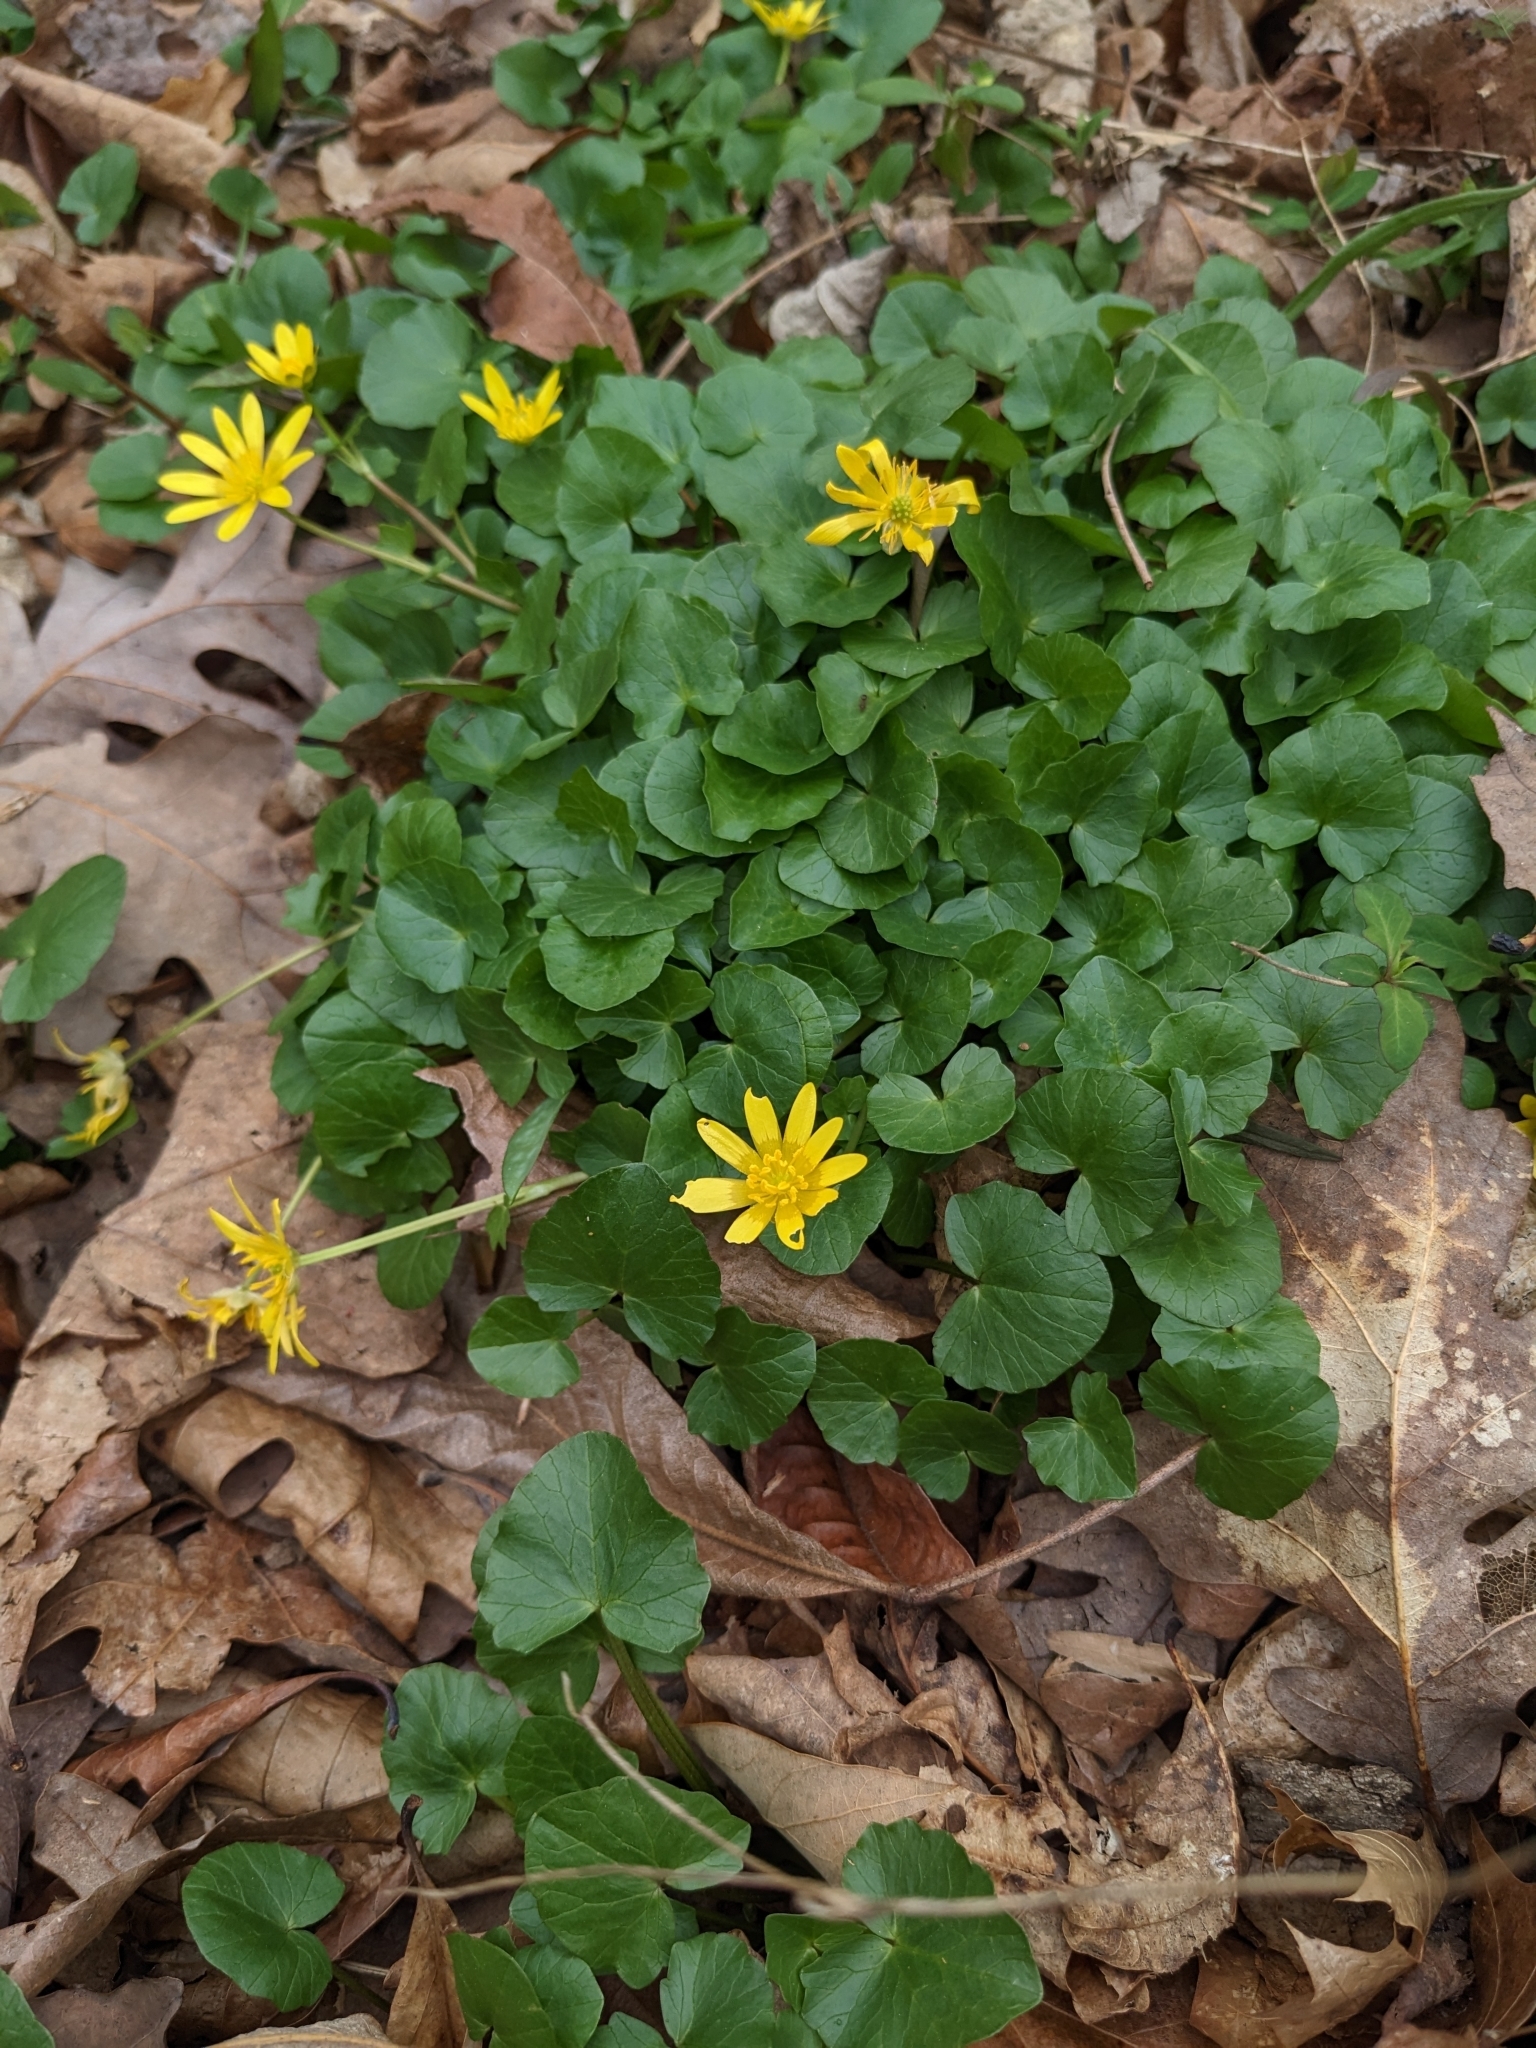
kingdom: Plantae
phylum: Tracheophyta
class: Magnoliopsida
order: Ranunculales
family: Ranunculaceae
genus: Ficaria
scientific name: Ficaria verna
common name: Lesser celandine
